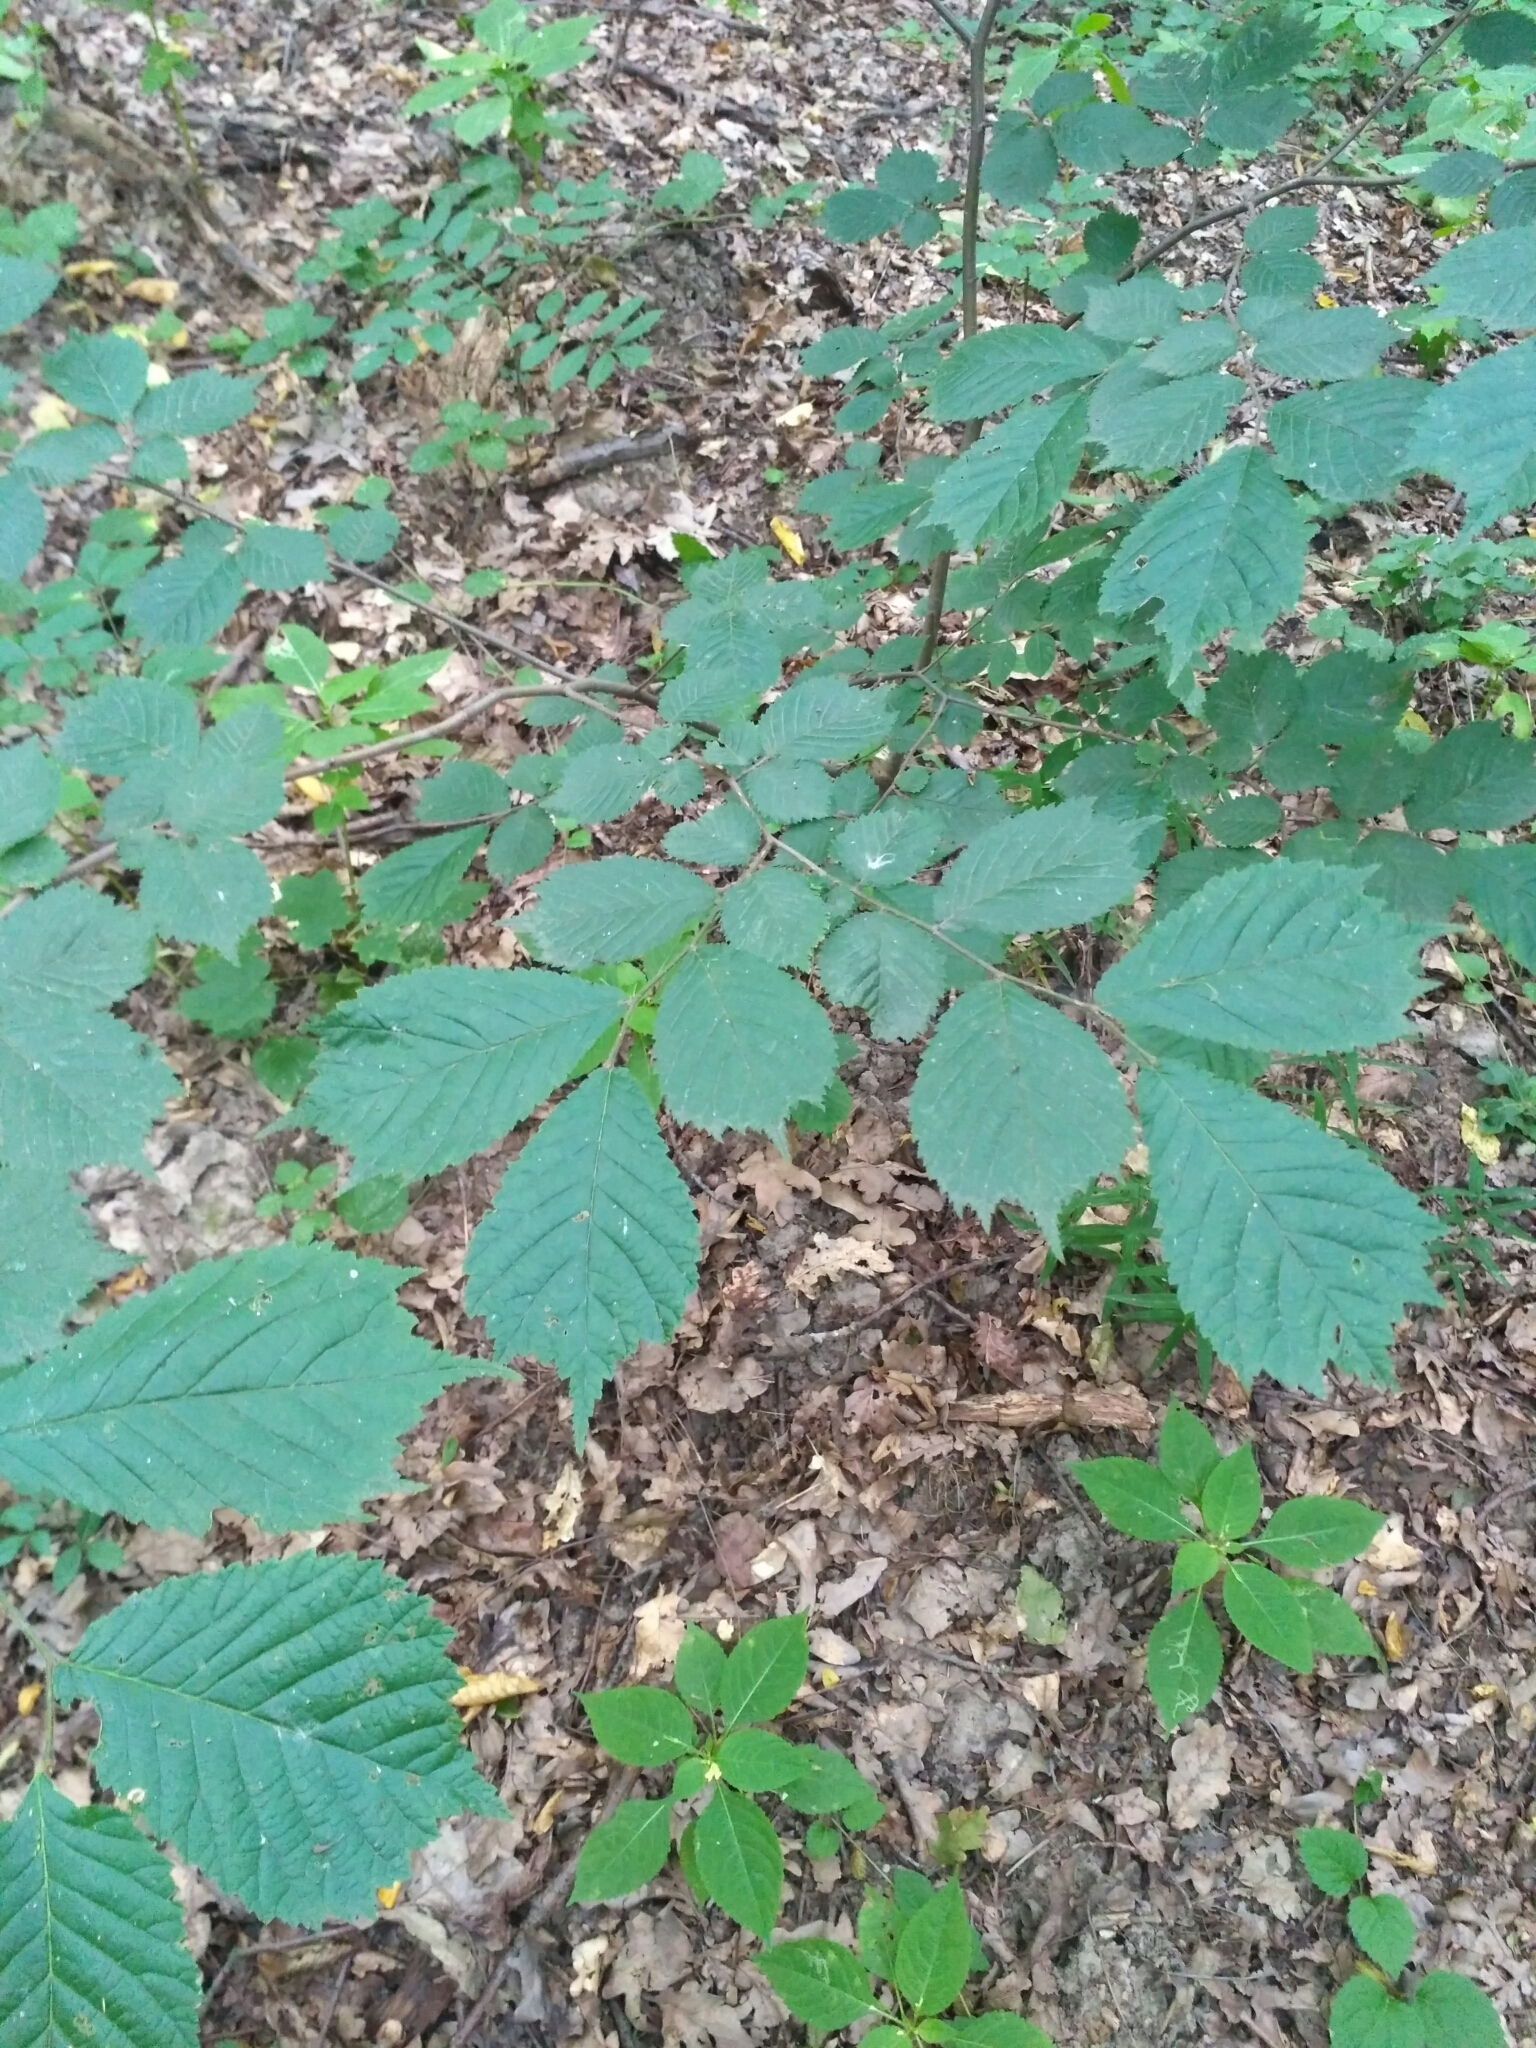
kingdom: Plantae
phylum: Tracheophyta
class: Magnoliopsida
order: Rosales
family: Ulmaceae
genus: Ulmus
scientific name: Ulmus glabra
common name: Wych elm
